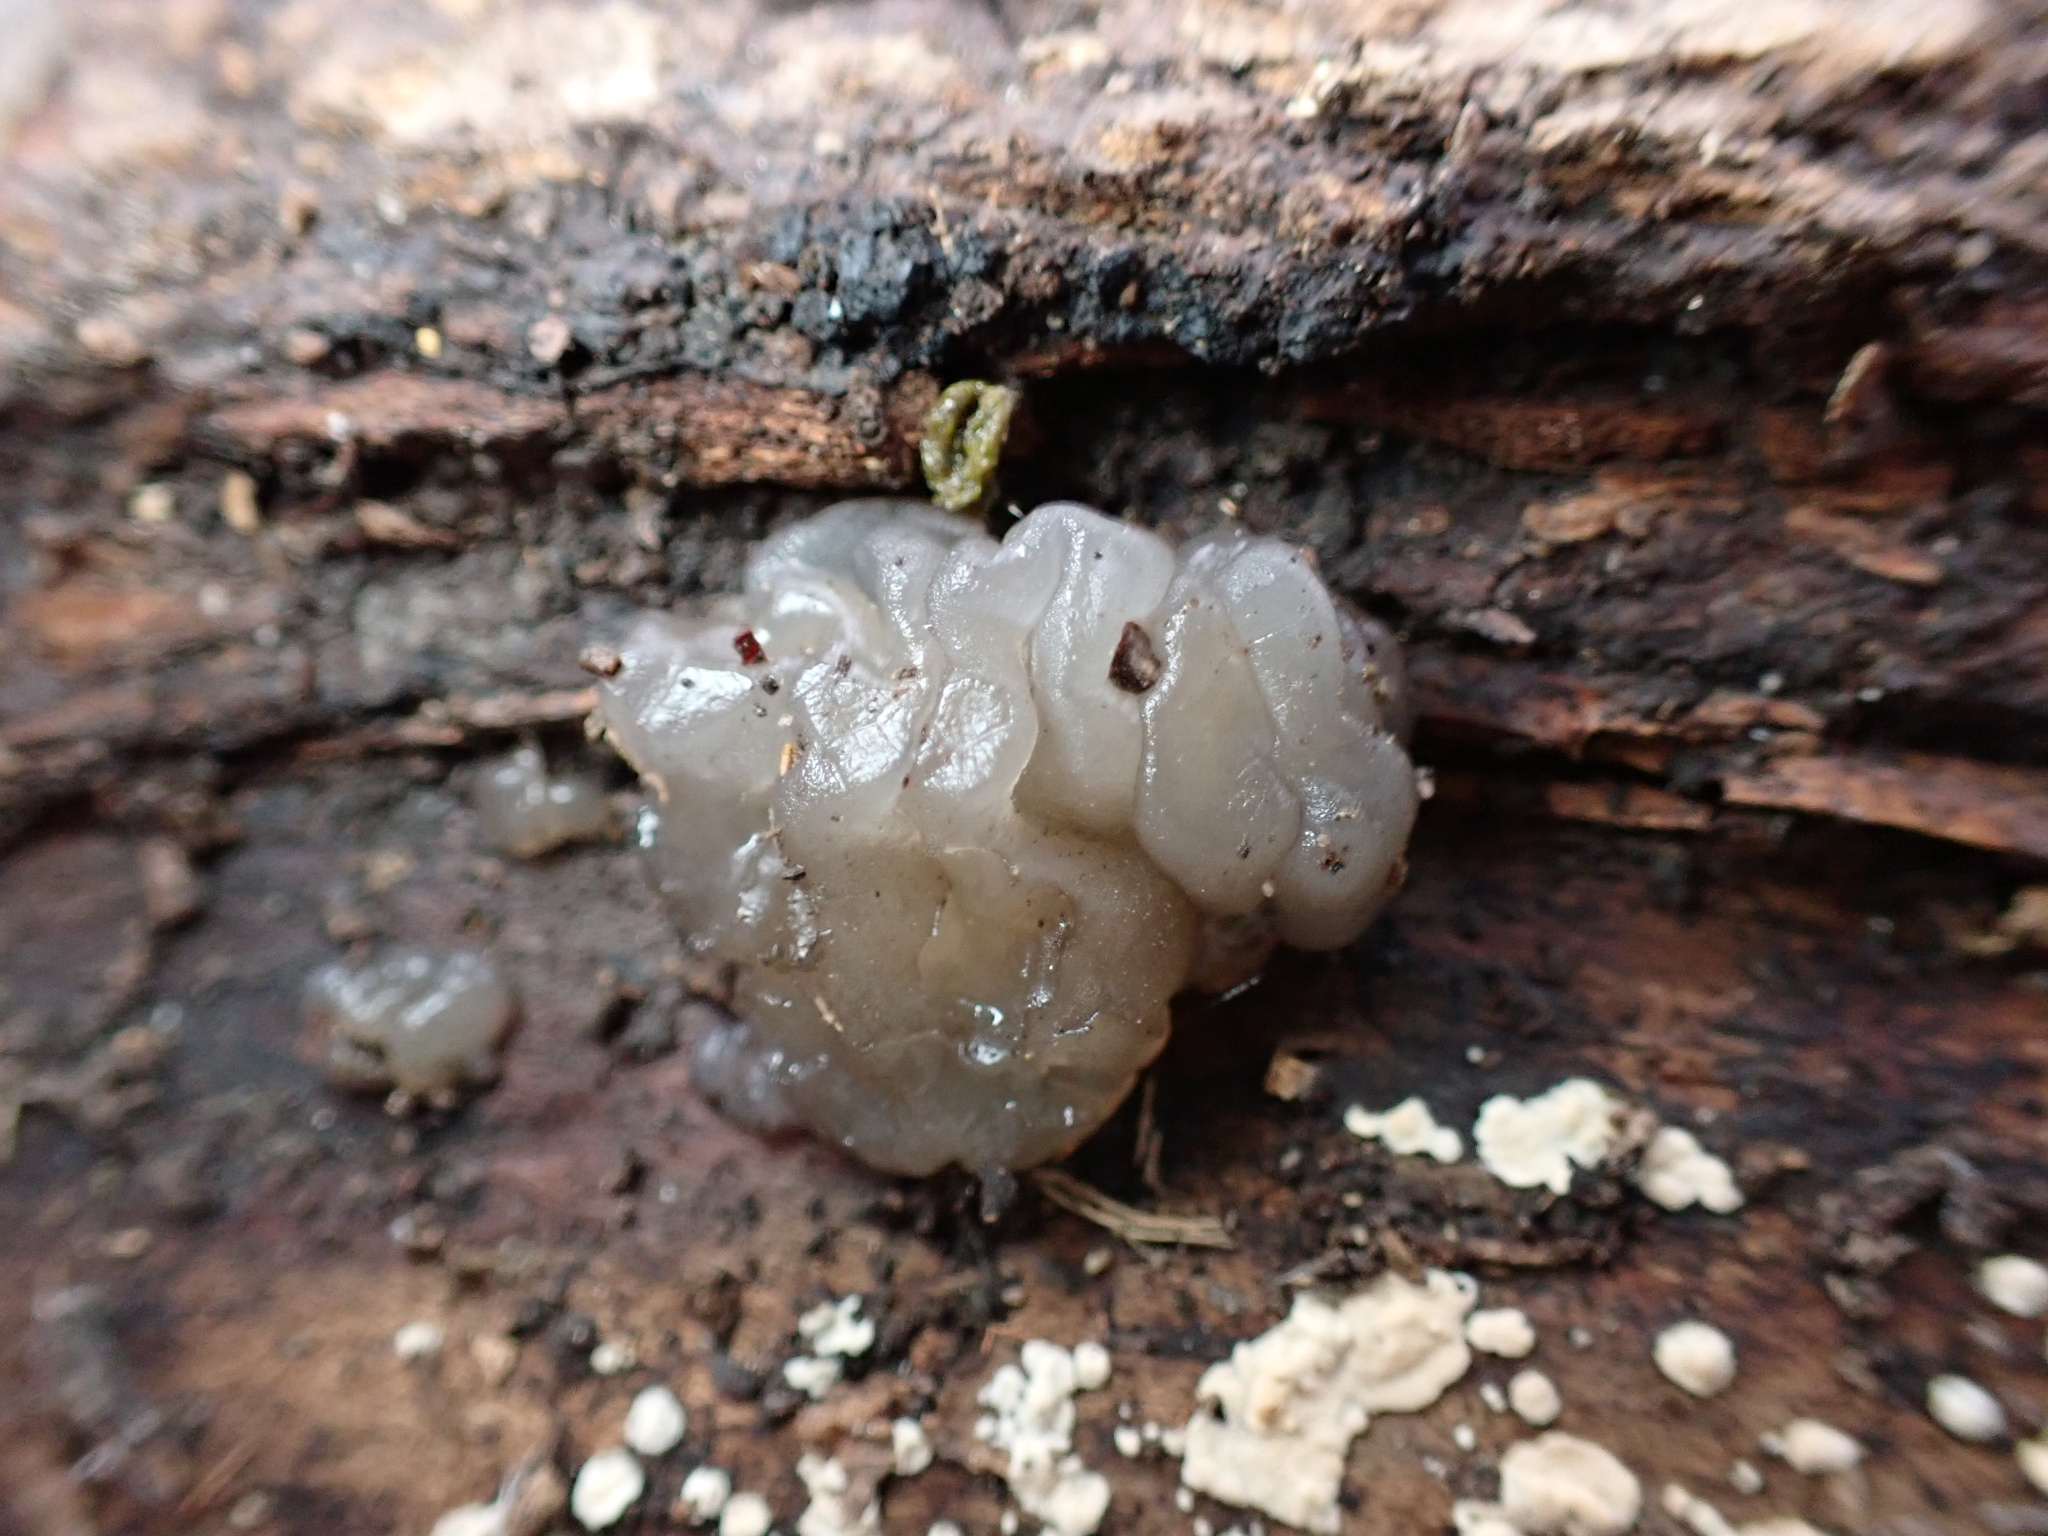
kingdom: Fungi
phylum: Basidiomycota
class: Agaricomycetes
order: Auriculariales
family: Hyaloriaceae
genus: Myxarium
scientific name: Myxarium nucleatum
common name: Crystal brain fungus
